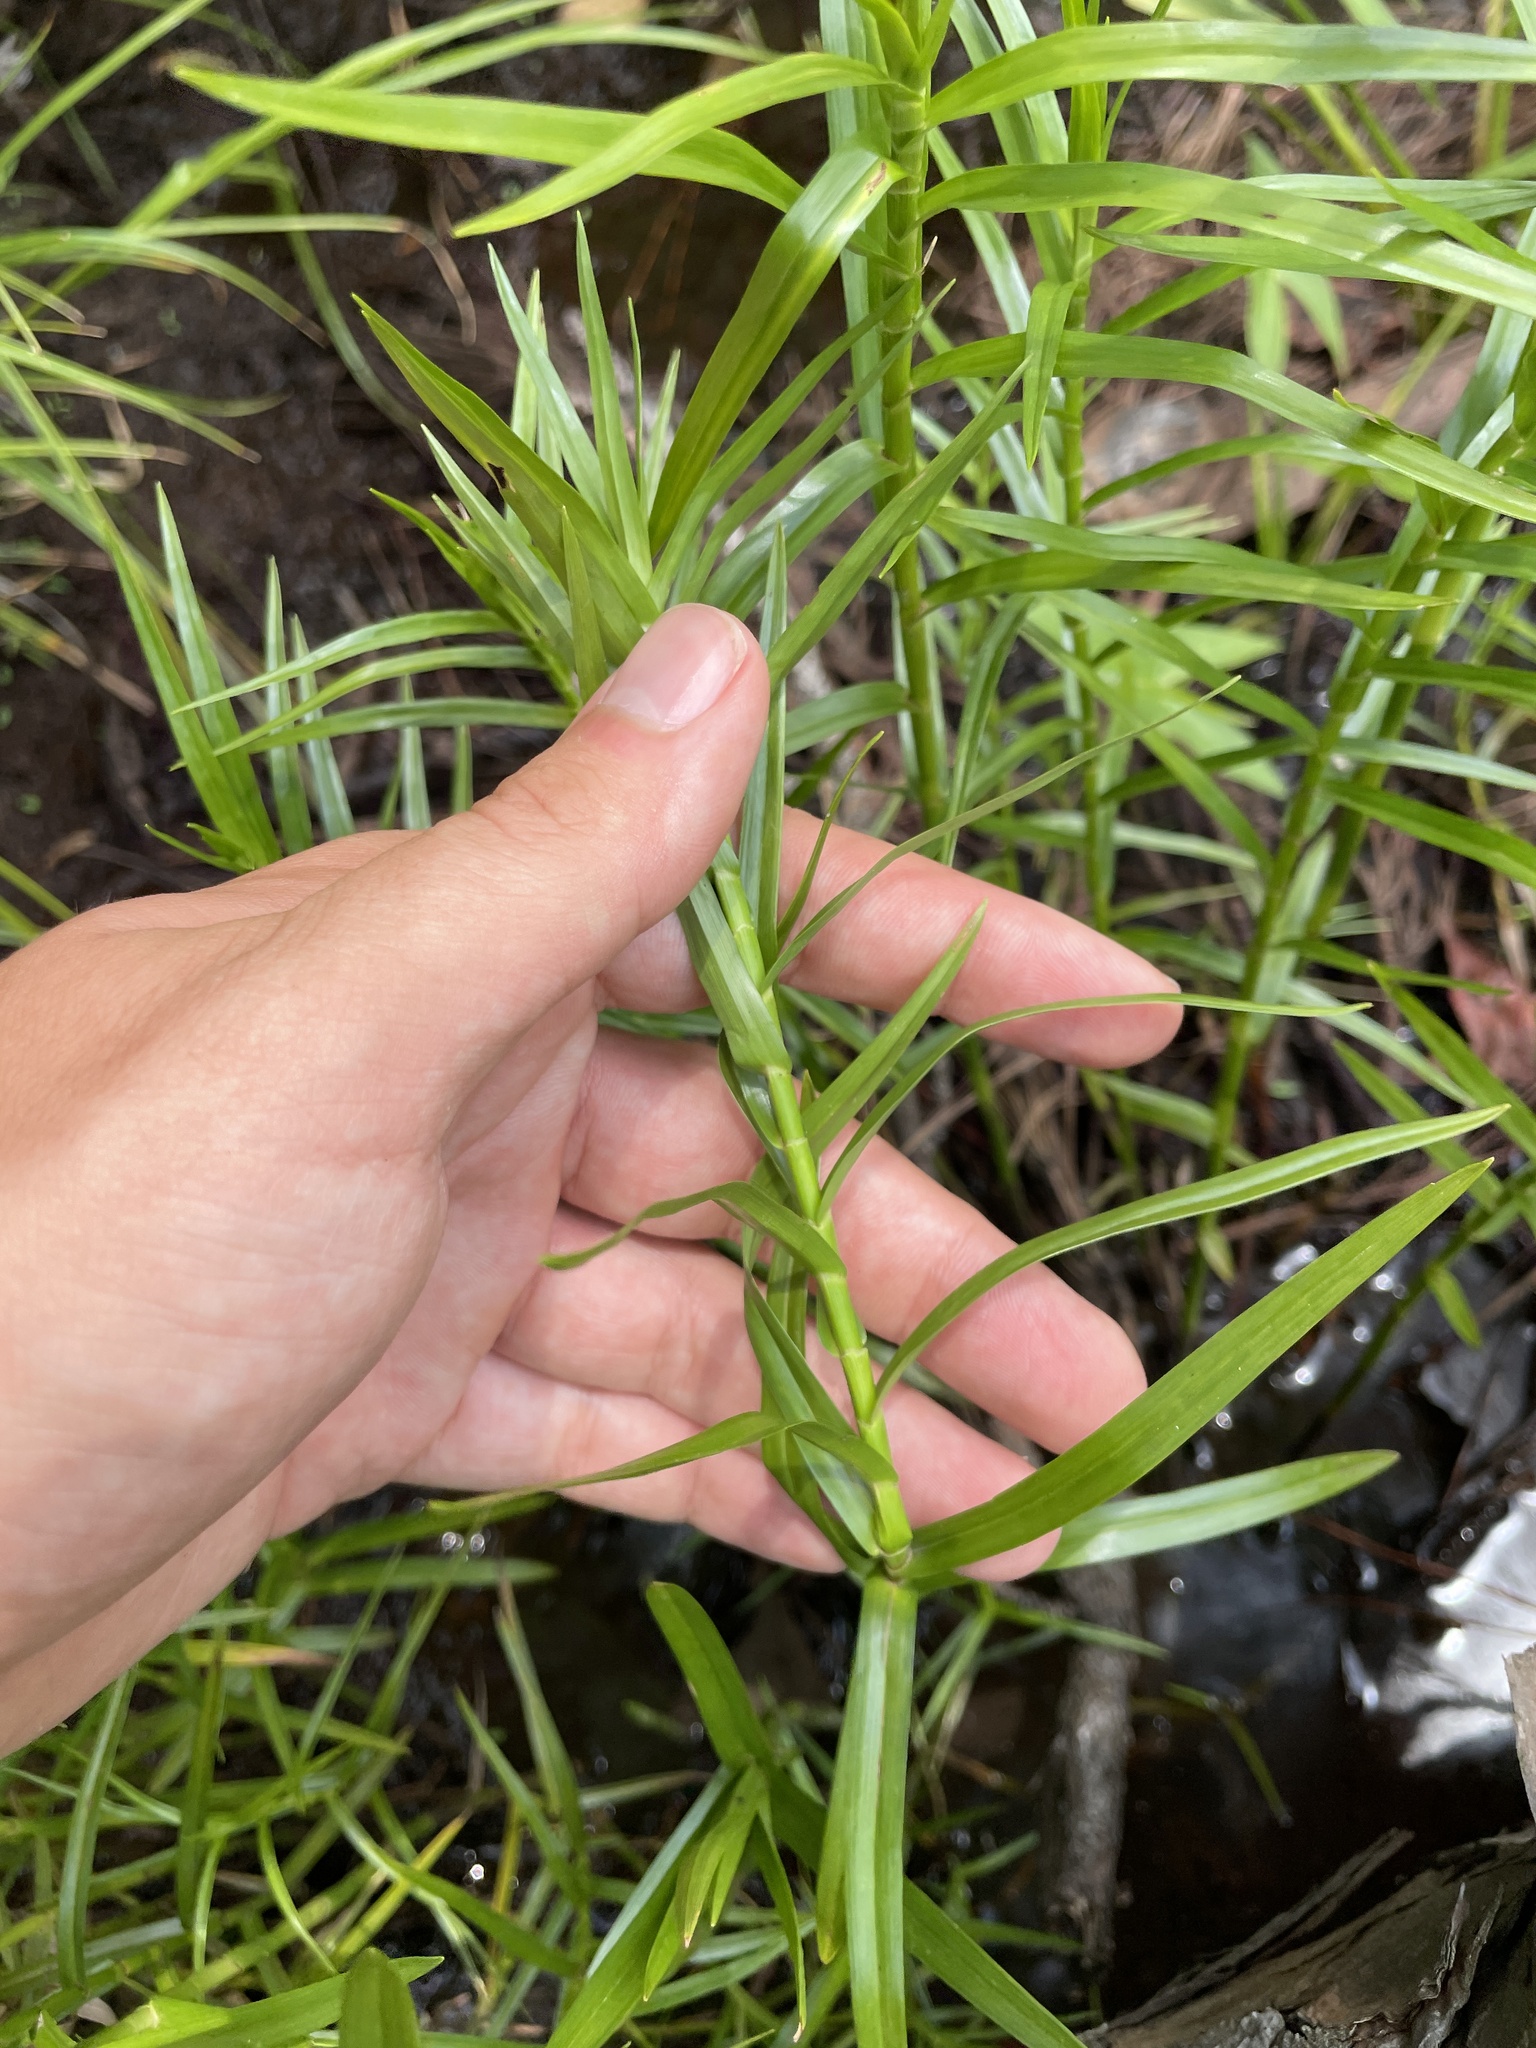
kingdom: Plantae
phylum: Tracheophyta
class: Liliopsida
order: Poales
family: Cyperaceae
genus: Dulichium
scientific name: Dulichium arundinaceum
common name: Three-way sedge
